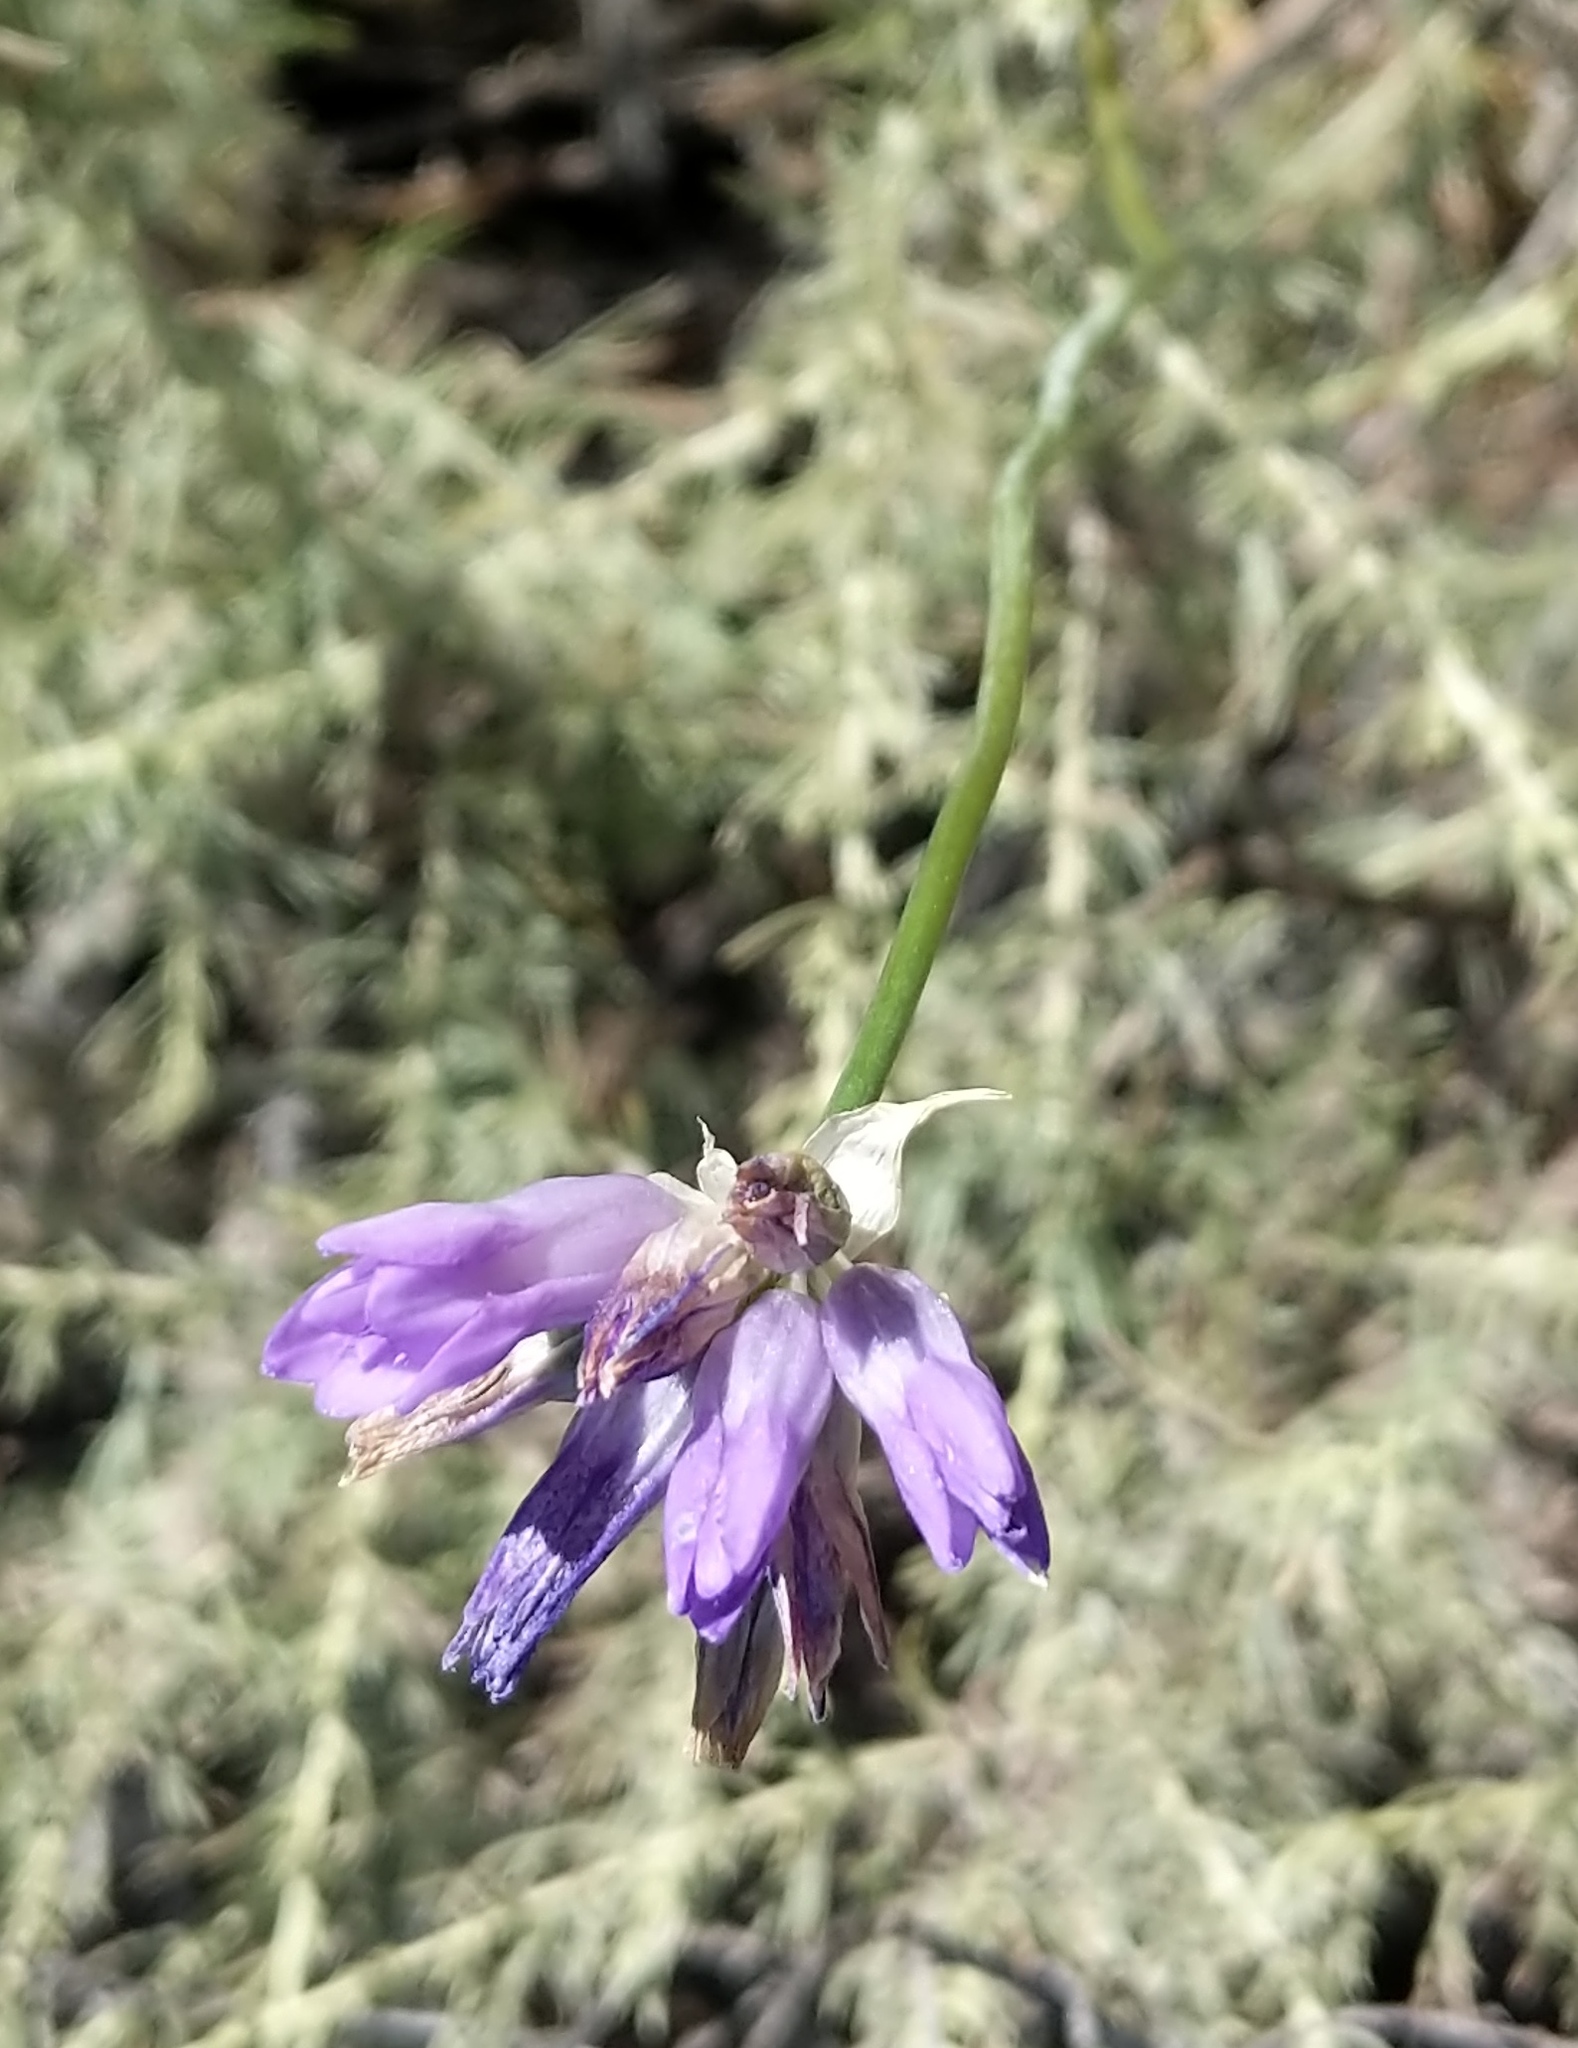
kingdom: Plantae
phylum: Tracheophyta
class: Liliopsida
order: Asparagales
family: Asparagaceae
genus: Dipterostemon
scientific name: Dipterostemon capitatus
